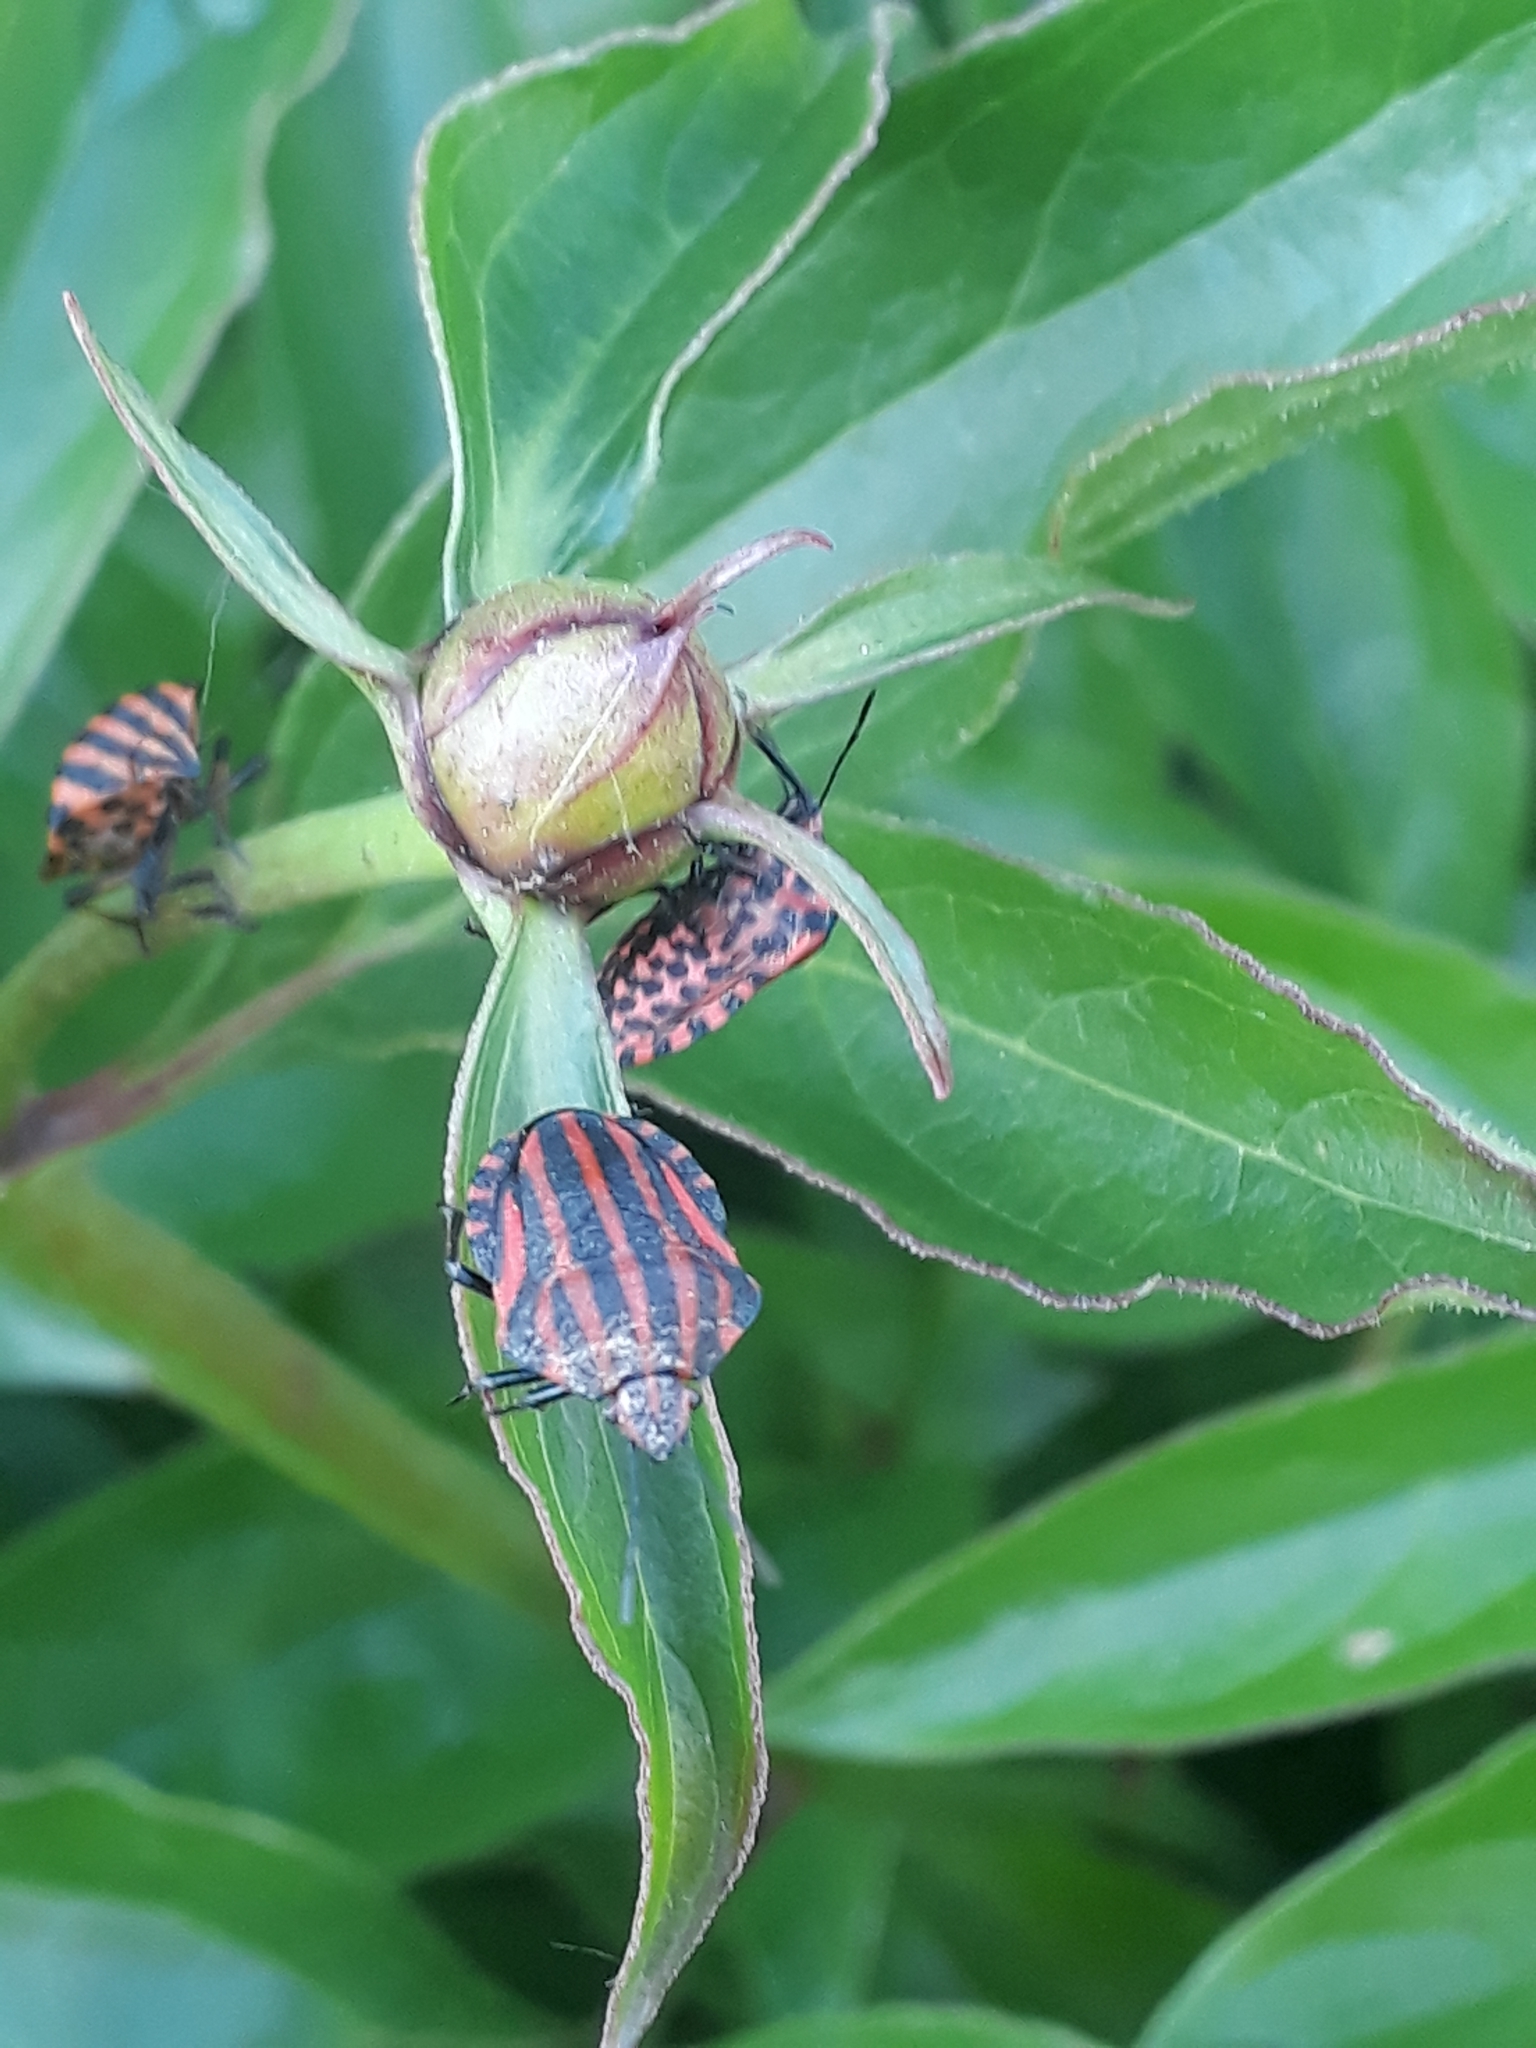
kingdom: Animalia
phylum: Arthropoda
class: Insecta
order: Hemiptera
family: Pentatomidae
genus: Graphosoma
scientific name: Graphosoma italicum
